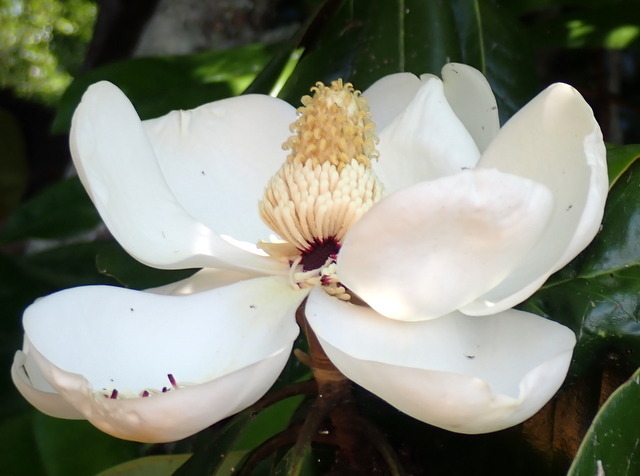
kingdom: Plantae
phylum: Tracheophyta
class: Magnoliopsida
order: Magnoliales
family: Magnoliaceae
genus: Magnolia
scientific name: Magnolia grandiflora
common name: Southern magnolia
